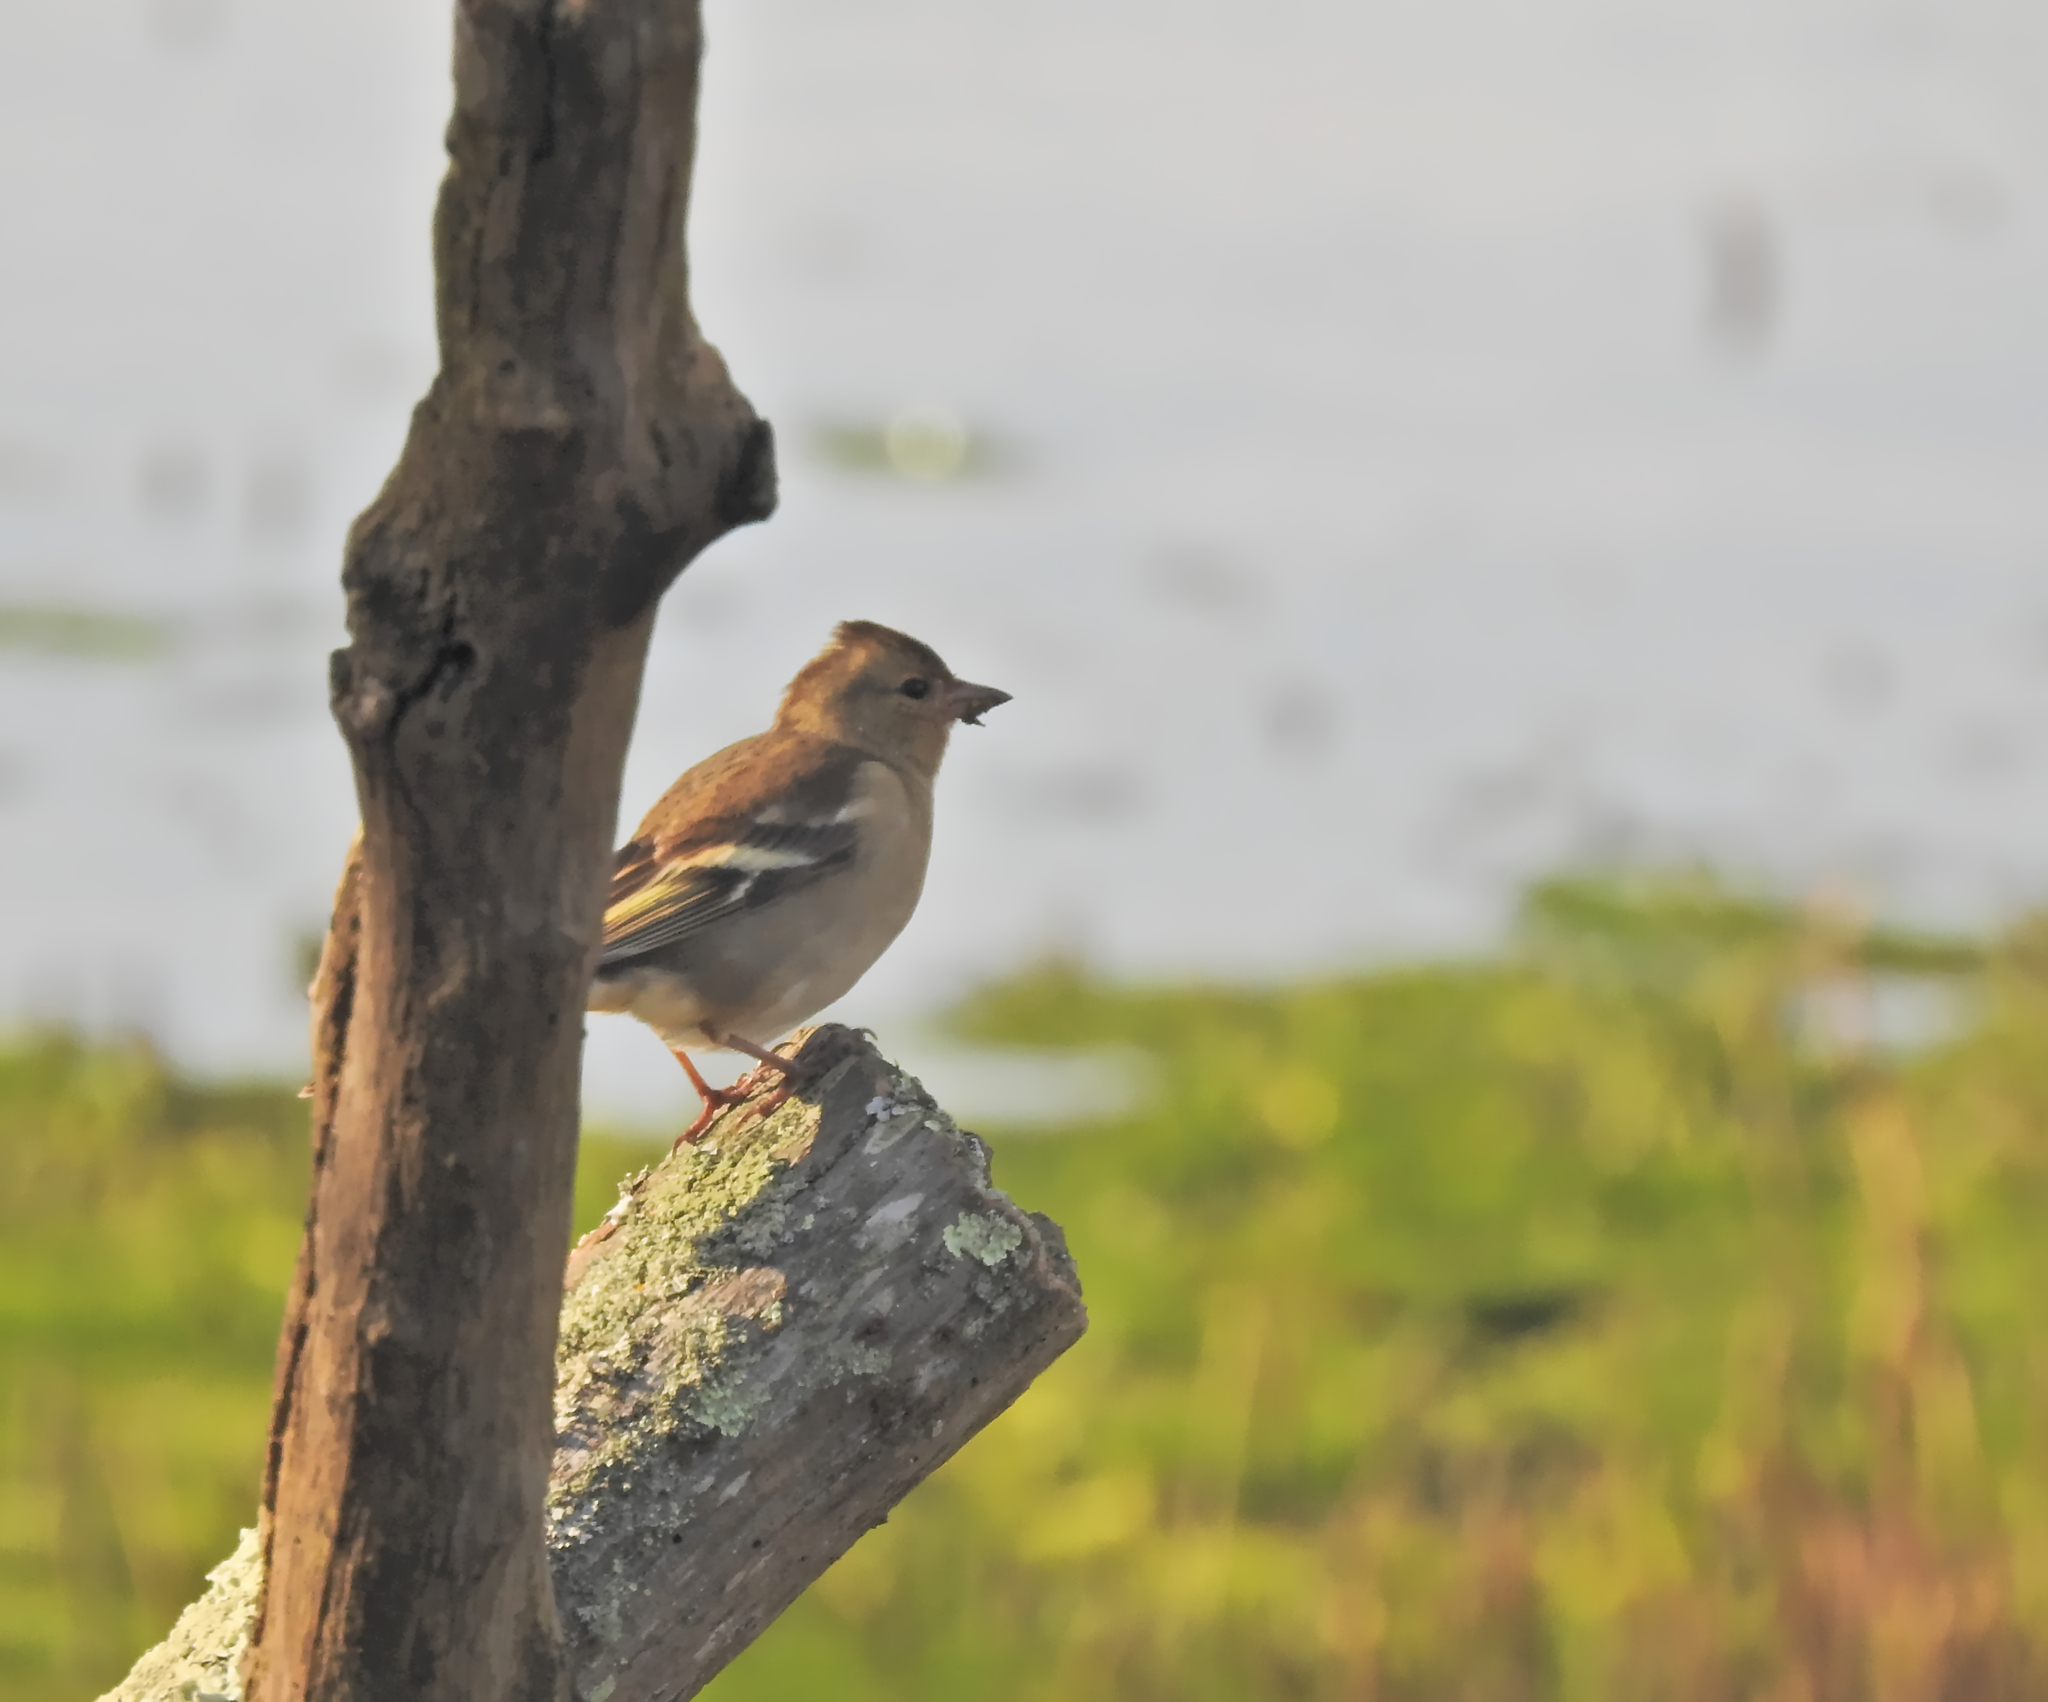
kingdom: Animalia
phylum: Chordata
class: Aves
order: Passeriformes
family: Fringillidae
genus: Fringilla
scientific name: Fringilla coelebs
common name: Common chaffinch
